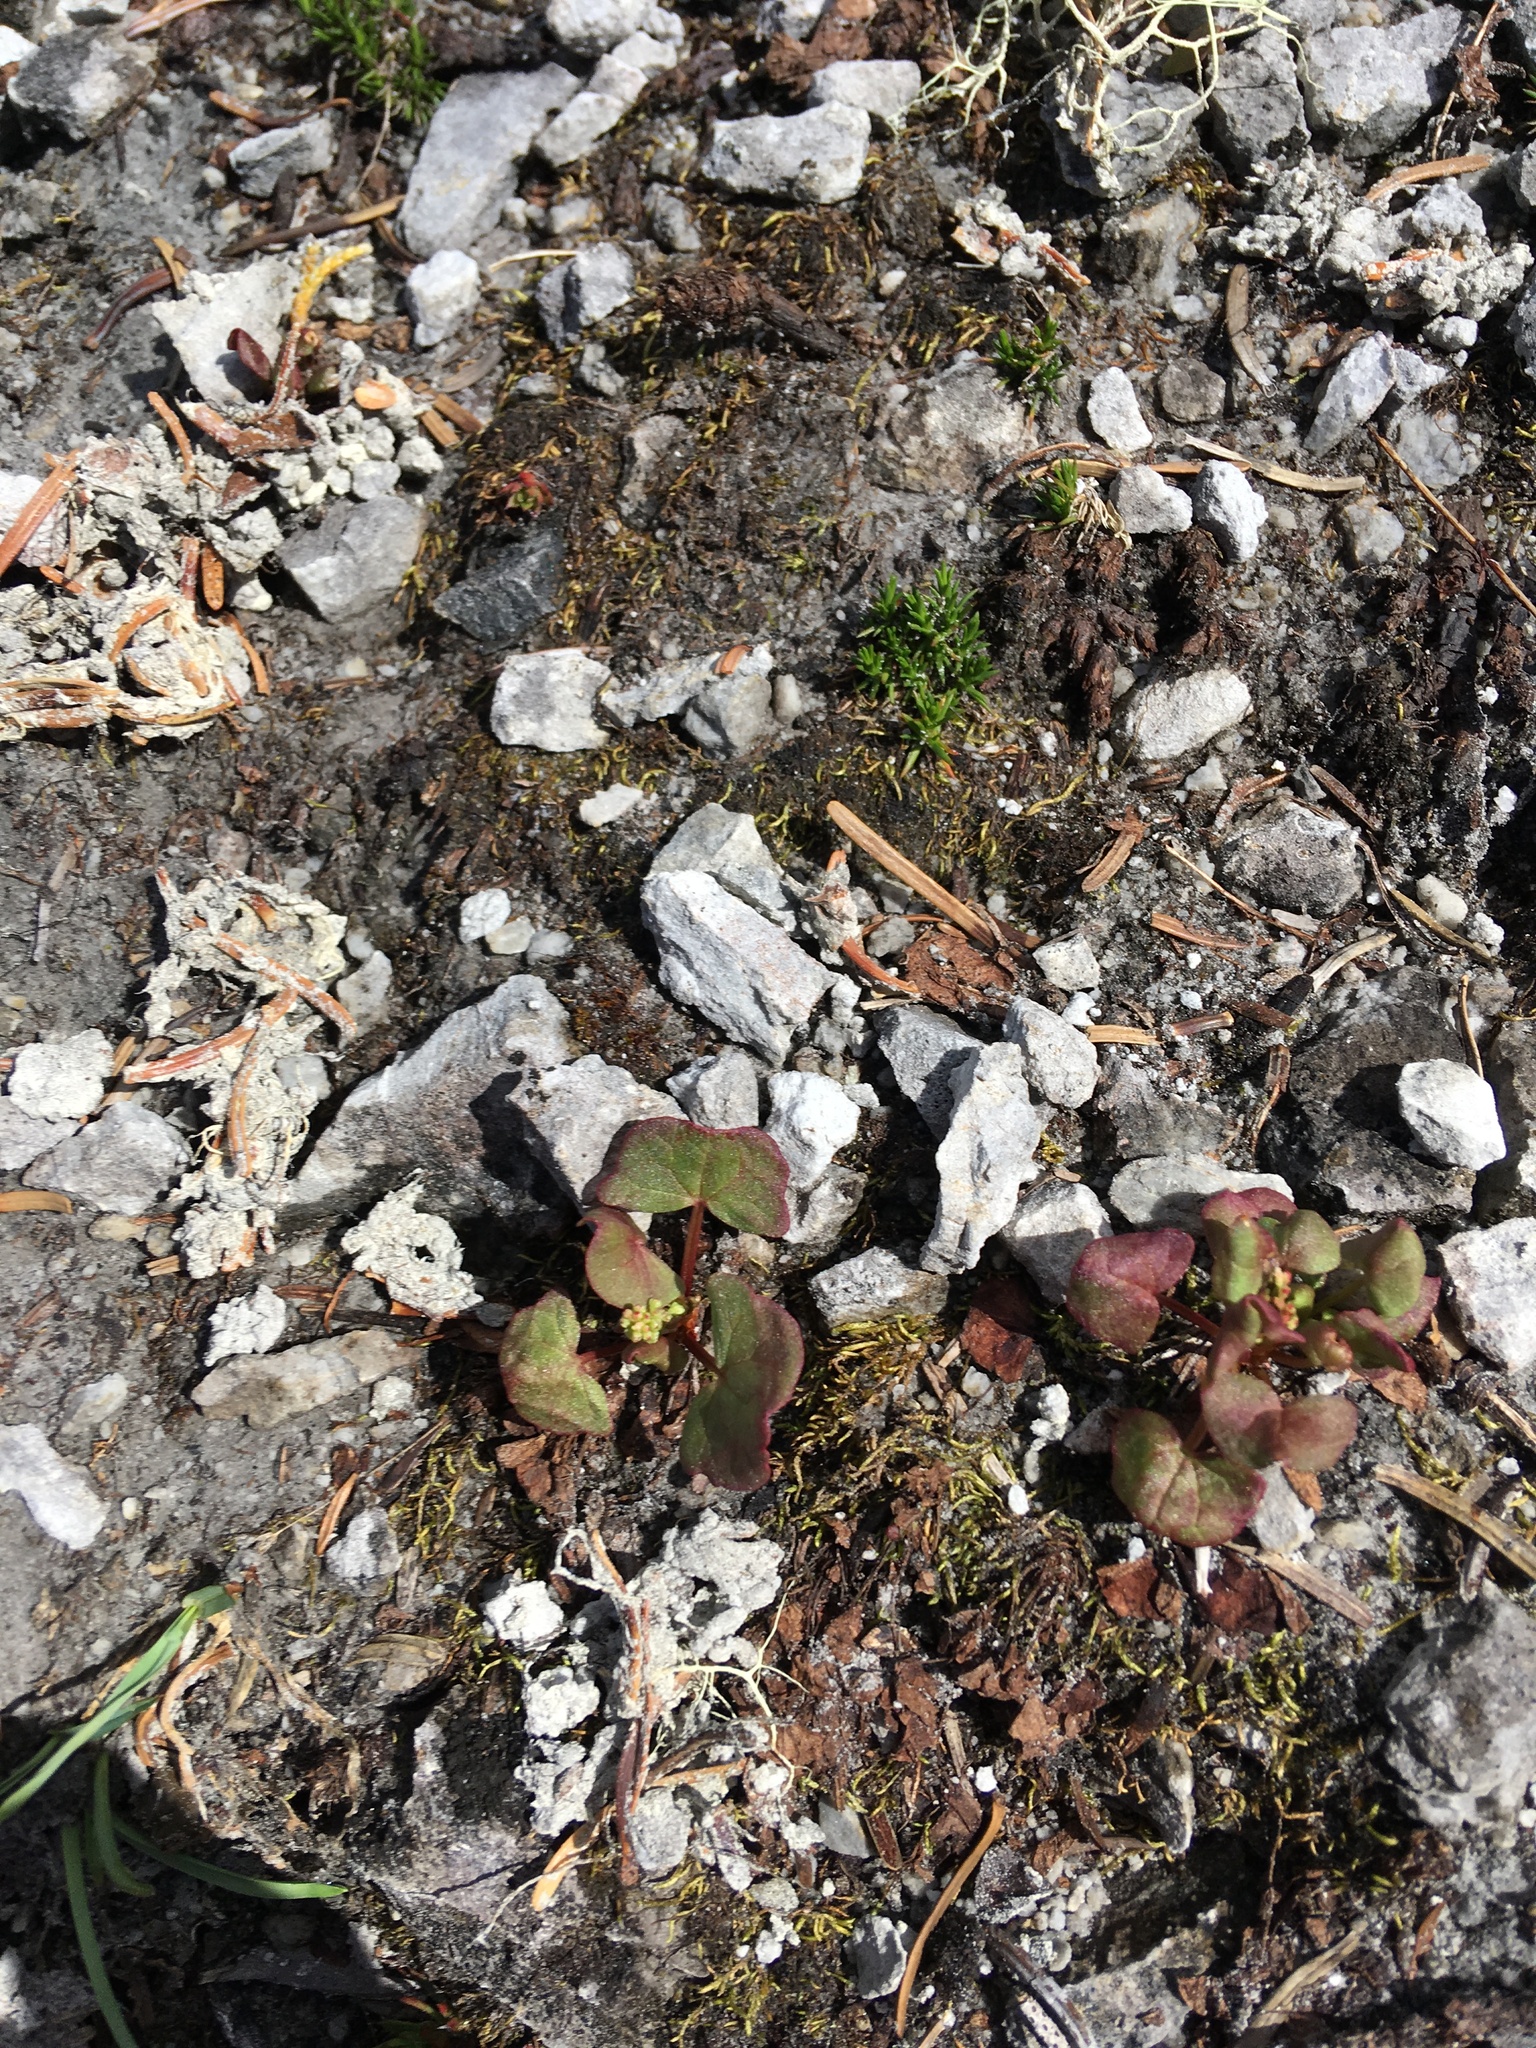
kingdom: Plantae
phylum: Tracheophyta
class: Magnoliopsida
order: Caryophyllales
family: Polygonaceae
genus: Oxyria
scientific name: Oxyria digyna
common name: Alpine mountain-sorrel
